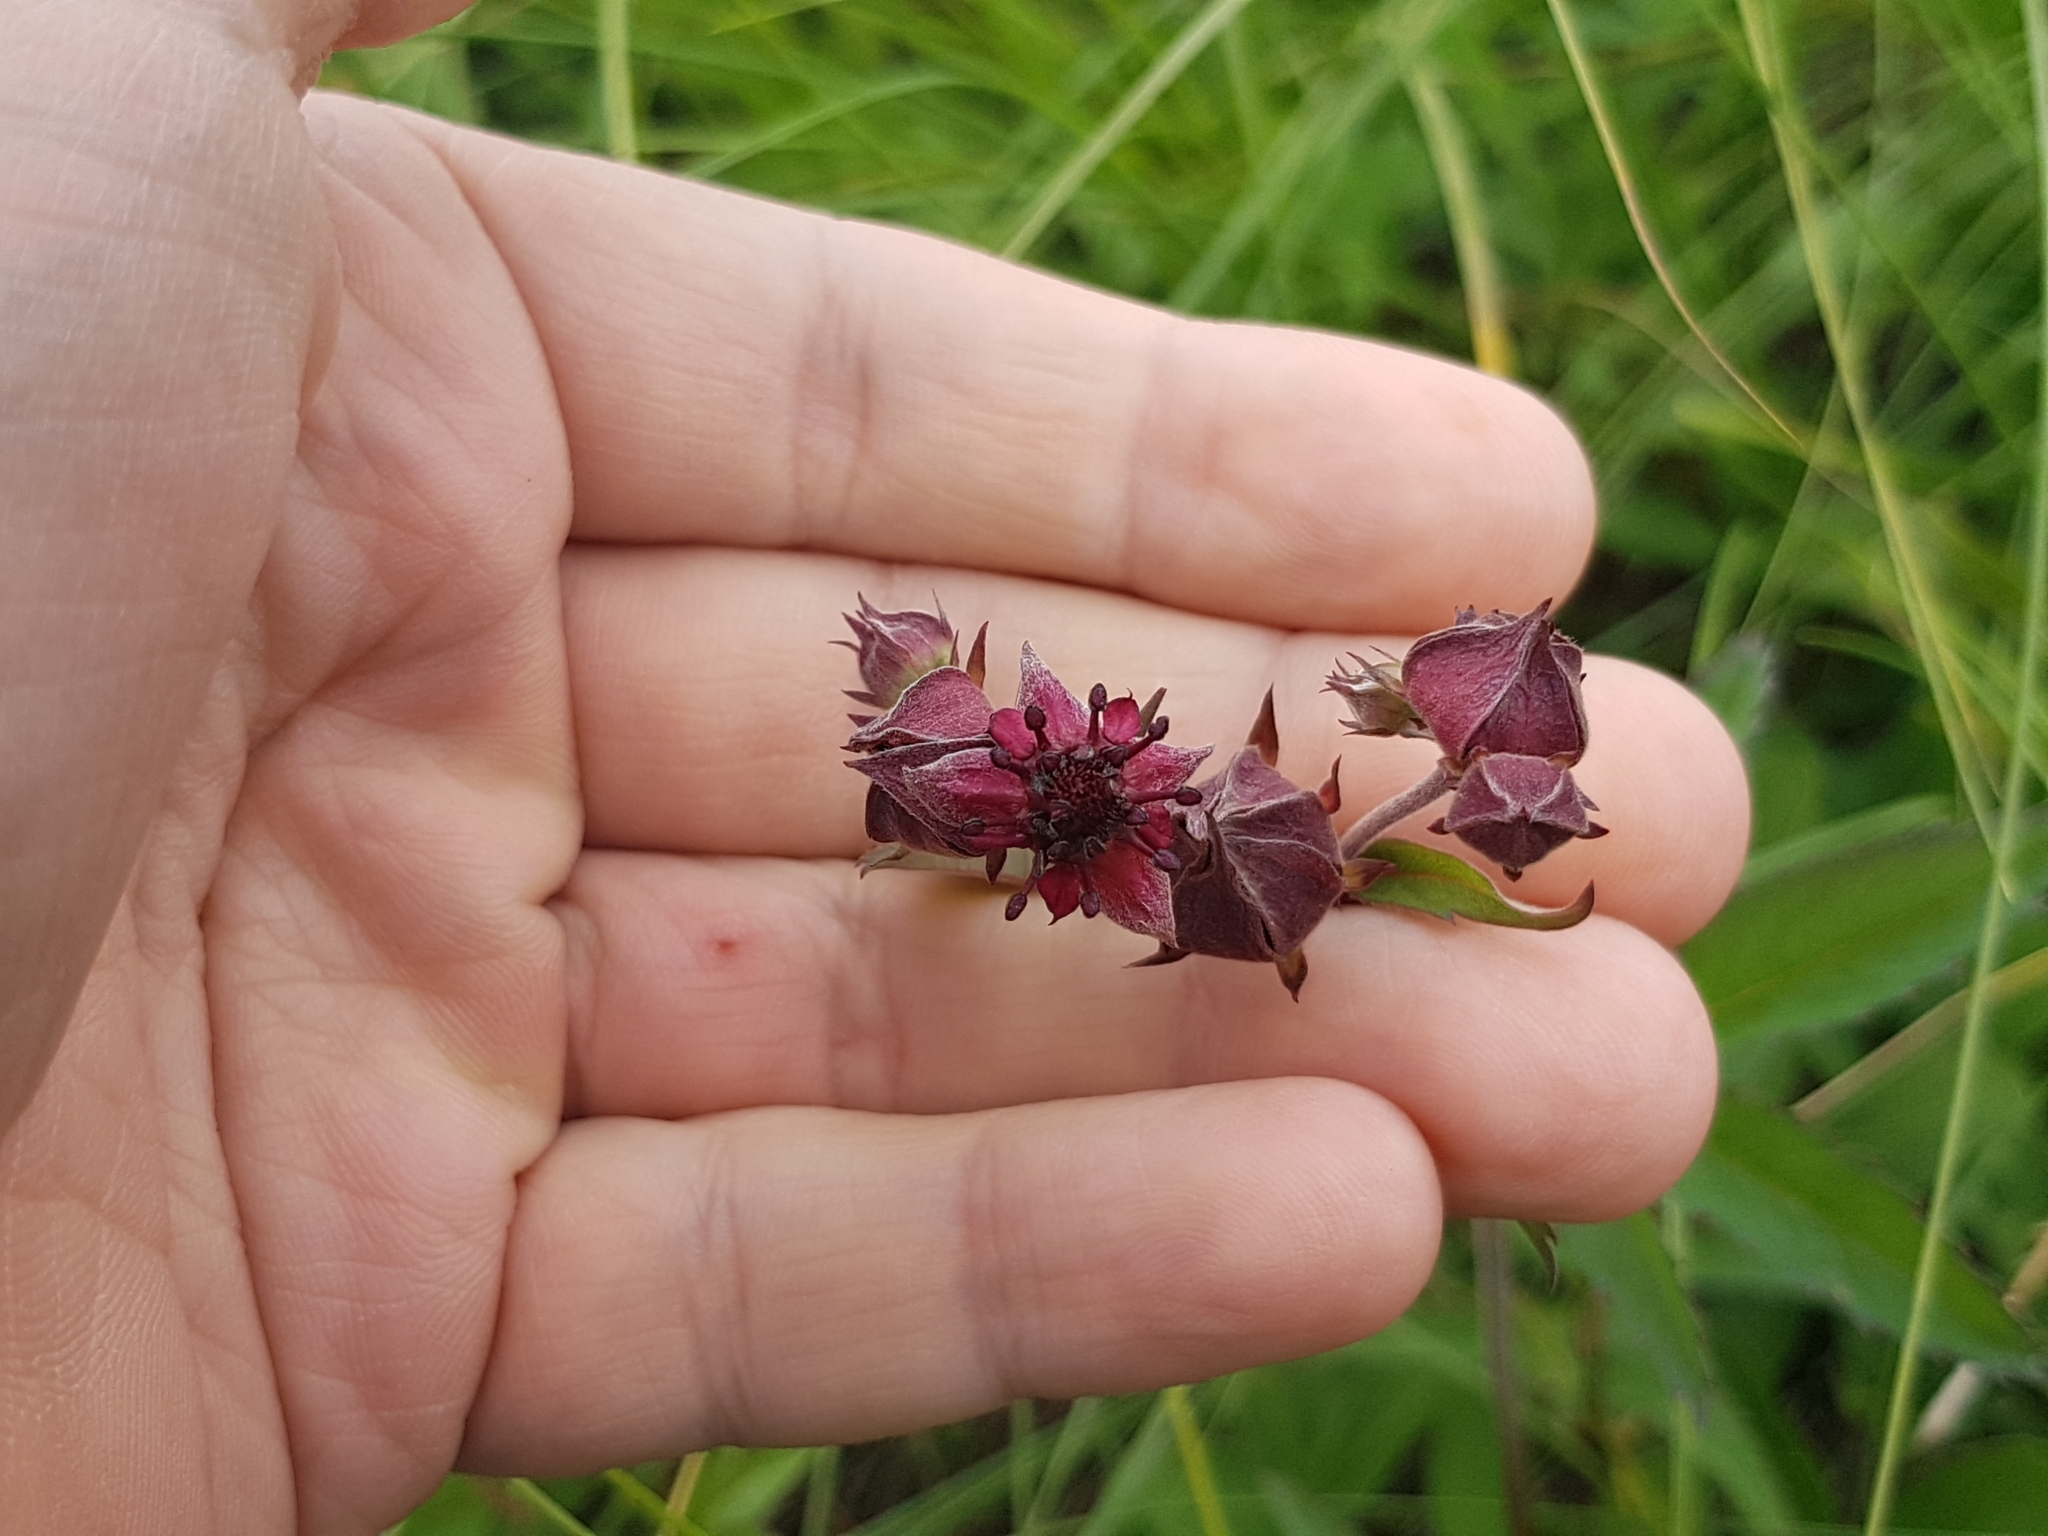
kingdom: Plantae
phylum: Tracheophyta
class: Magnoliopsida
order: Rosales
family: Rosaceae
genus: Comarum
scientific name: Comarum palustre
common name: Marsh cinquefoil
